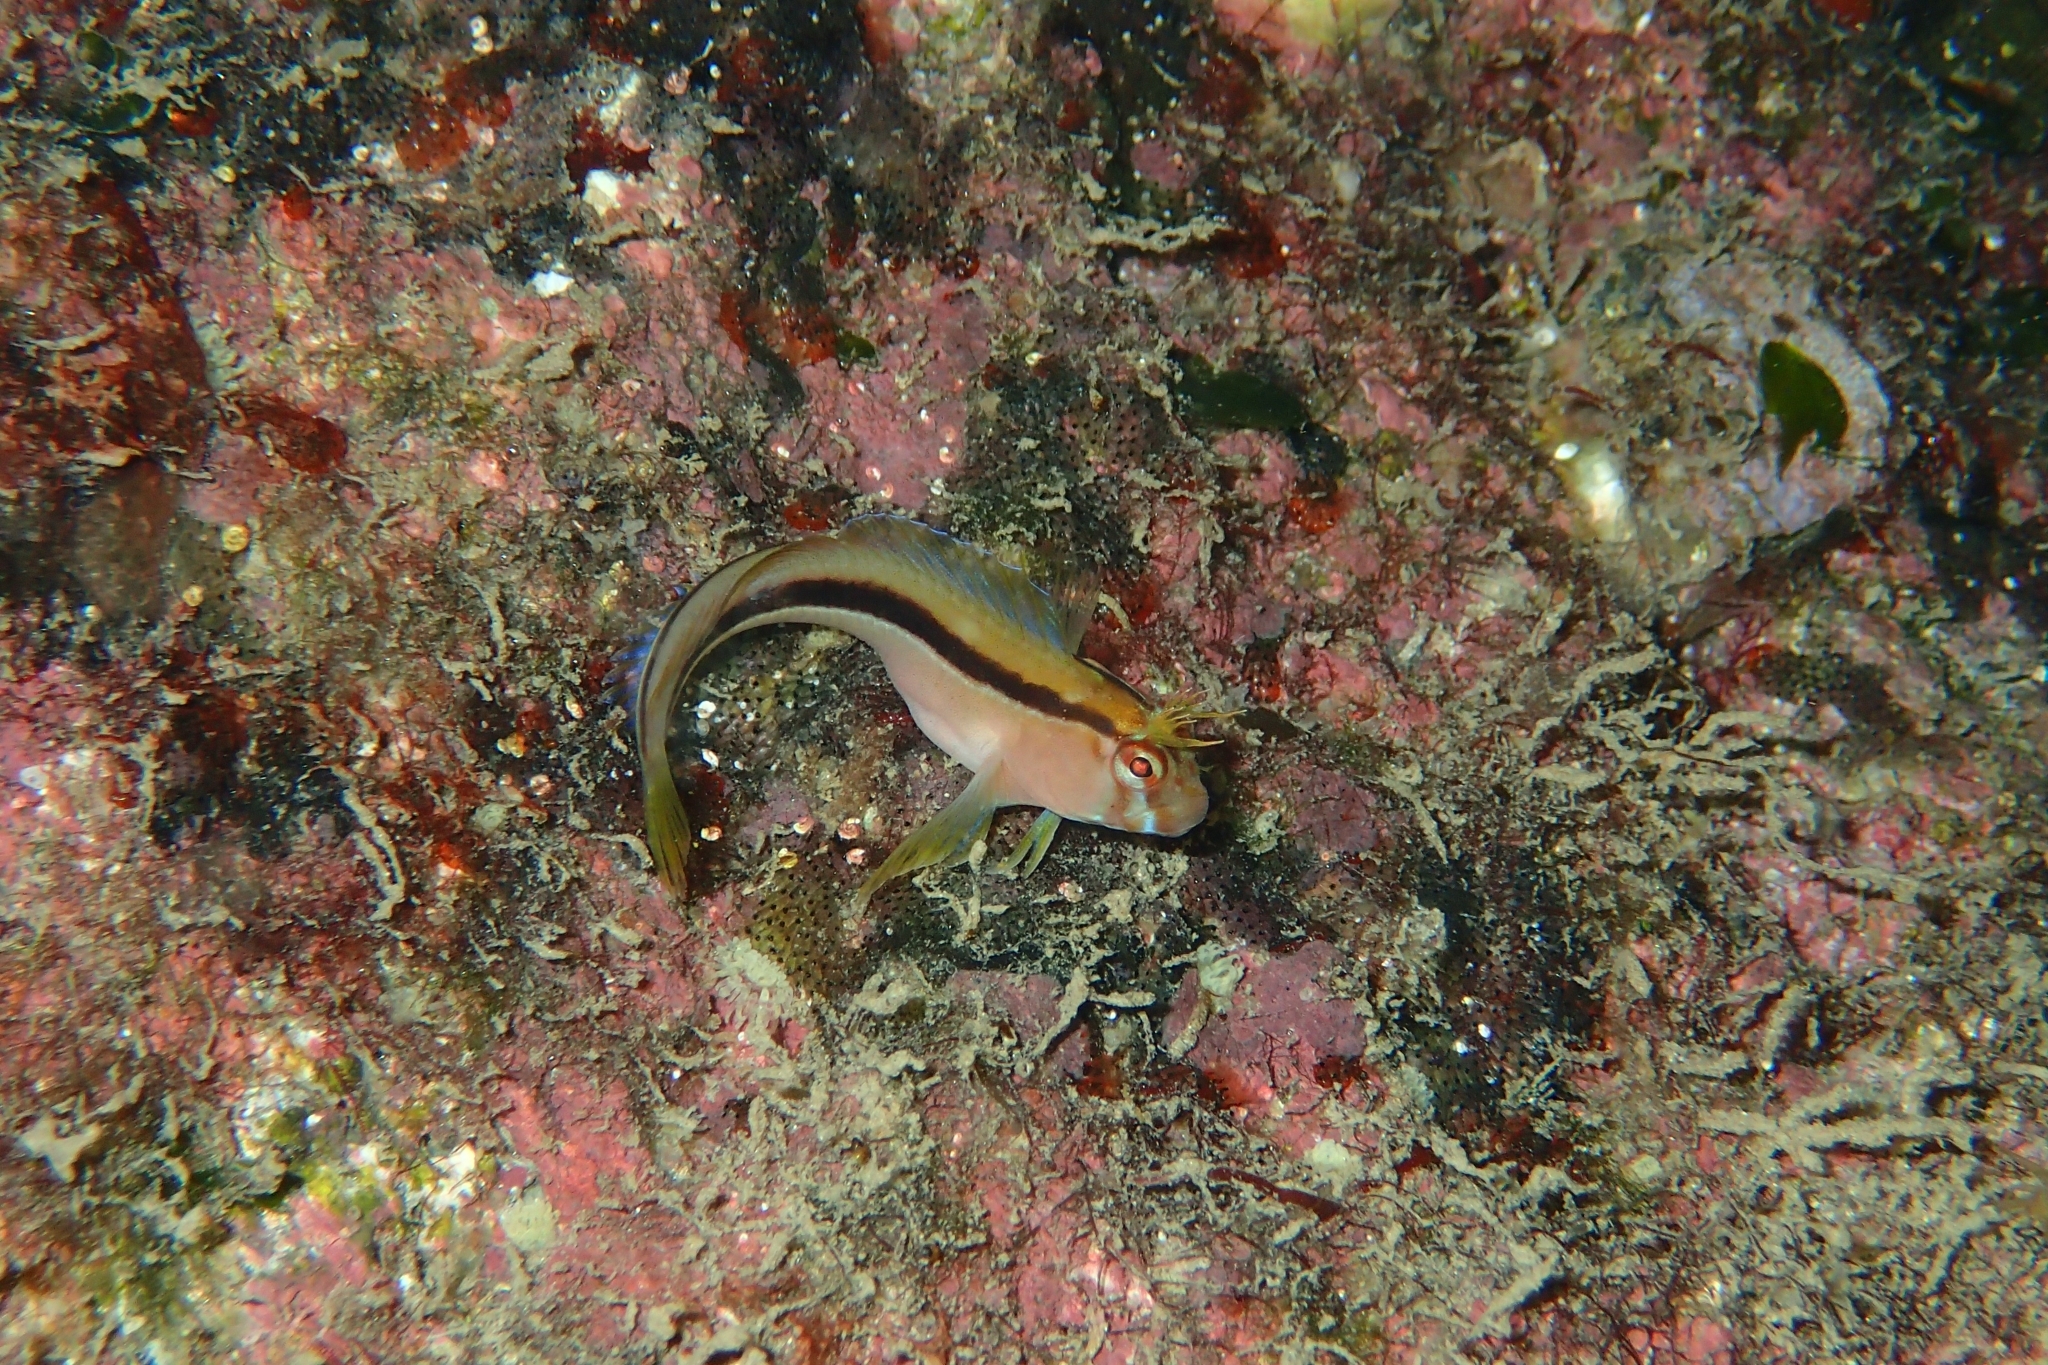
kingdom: Animalia
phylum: Chordata
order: Perciformes
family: Blenniidae
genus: Parablennius
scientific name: Parablennius laticlavius
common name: Crested blenny
